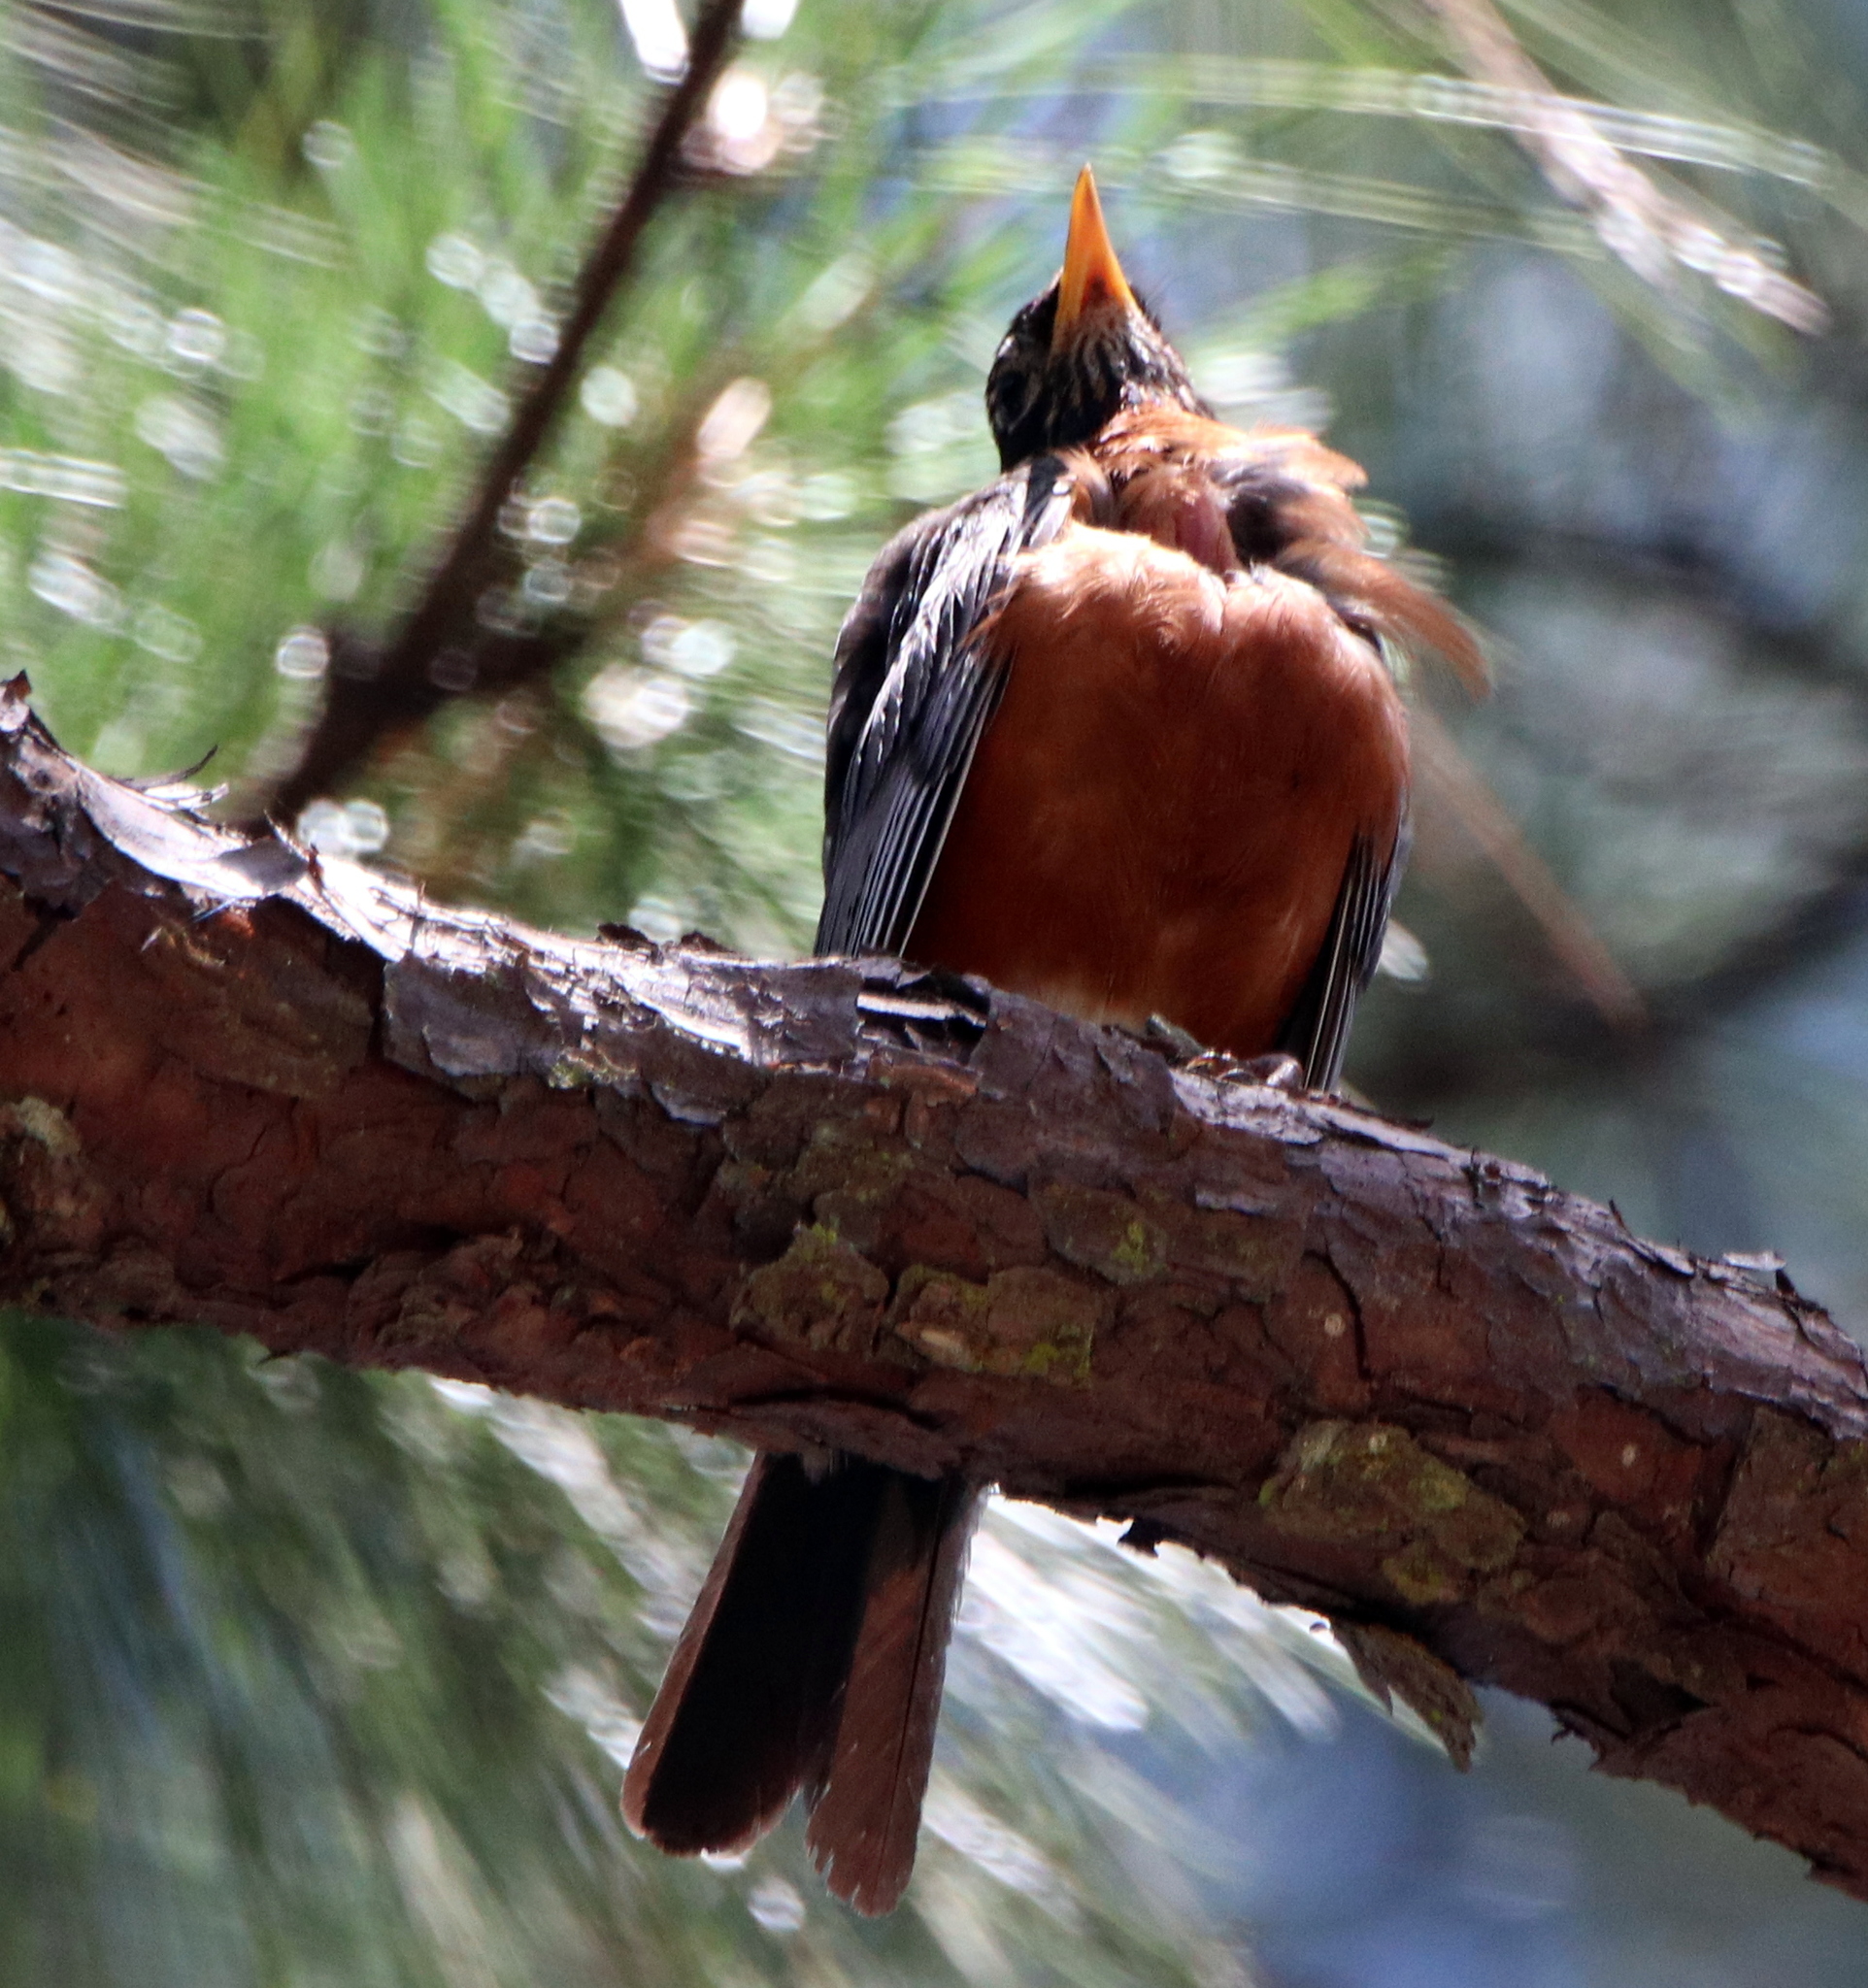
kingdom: Animalia
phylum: Chordata
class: Aves
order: Passeriformes
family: Turdidae
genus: Turdus
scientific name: Turdus migratorius
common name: American robin
